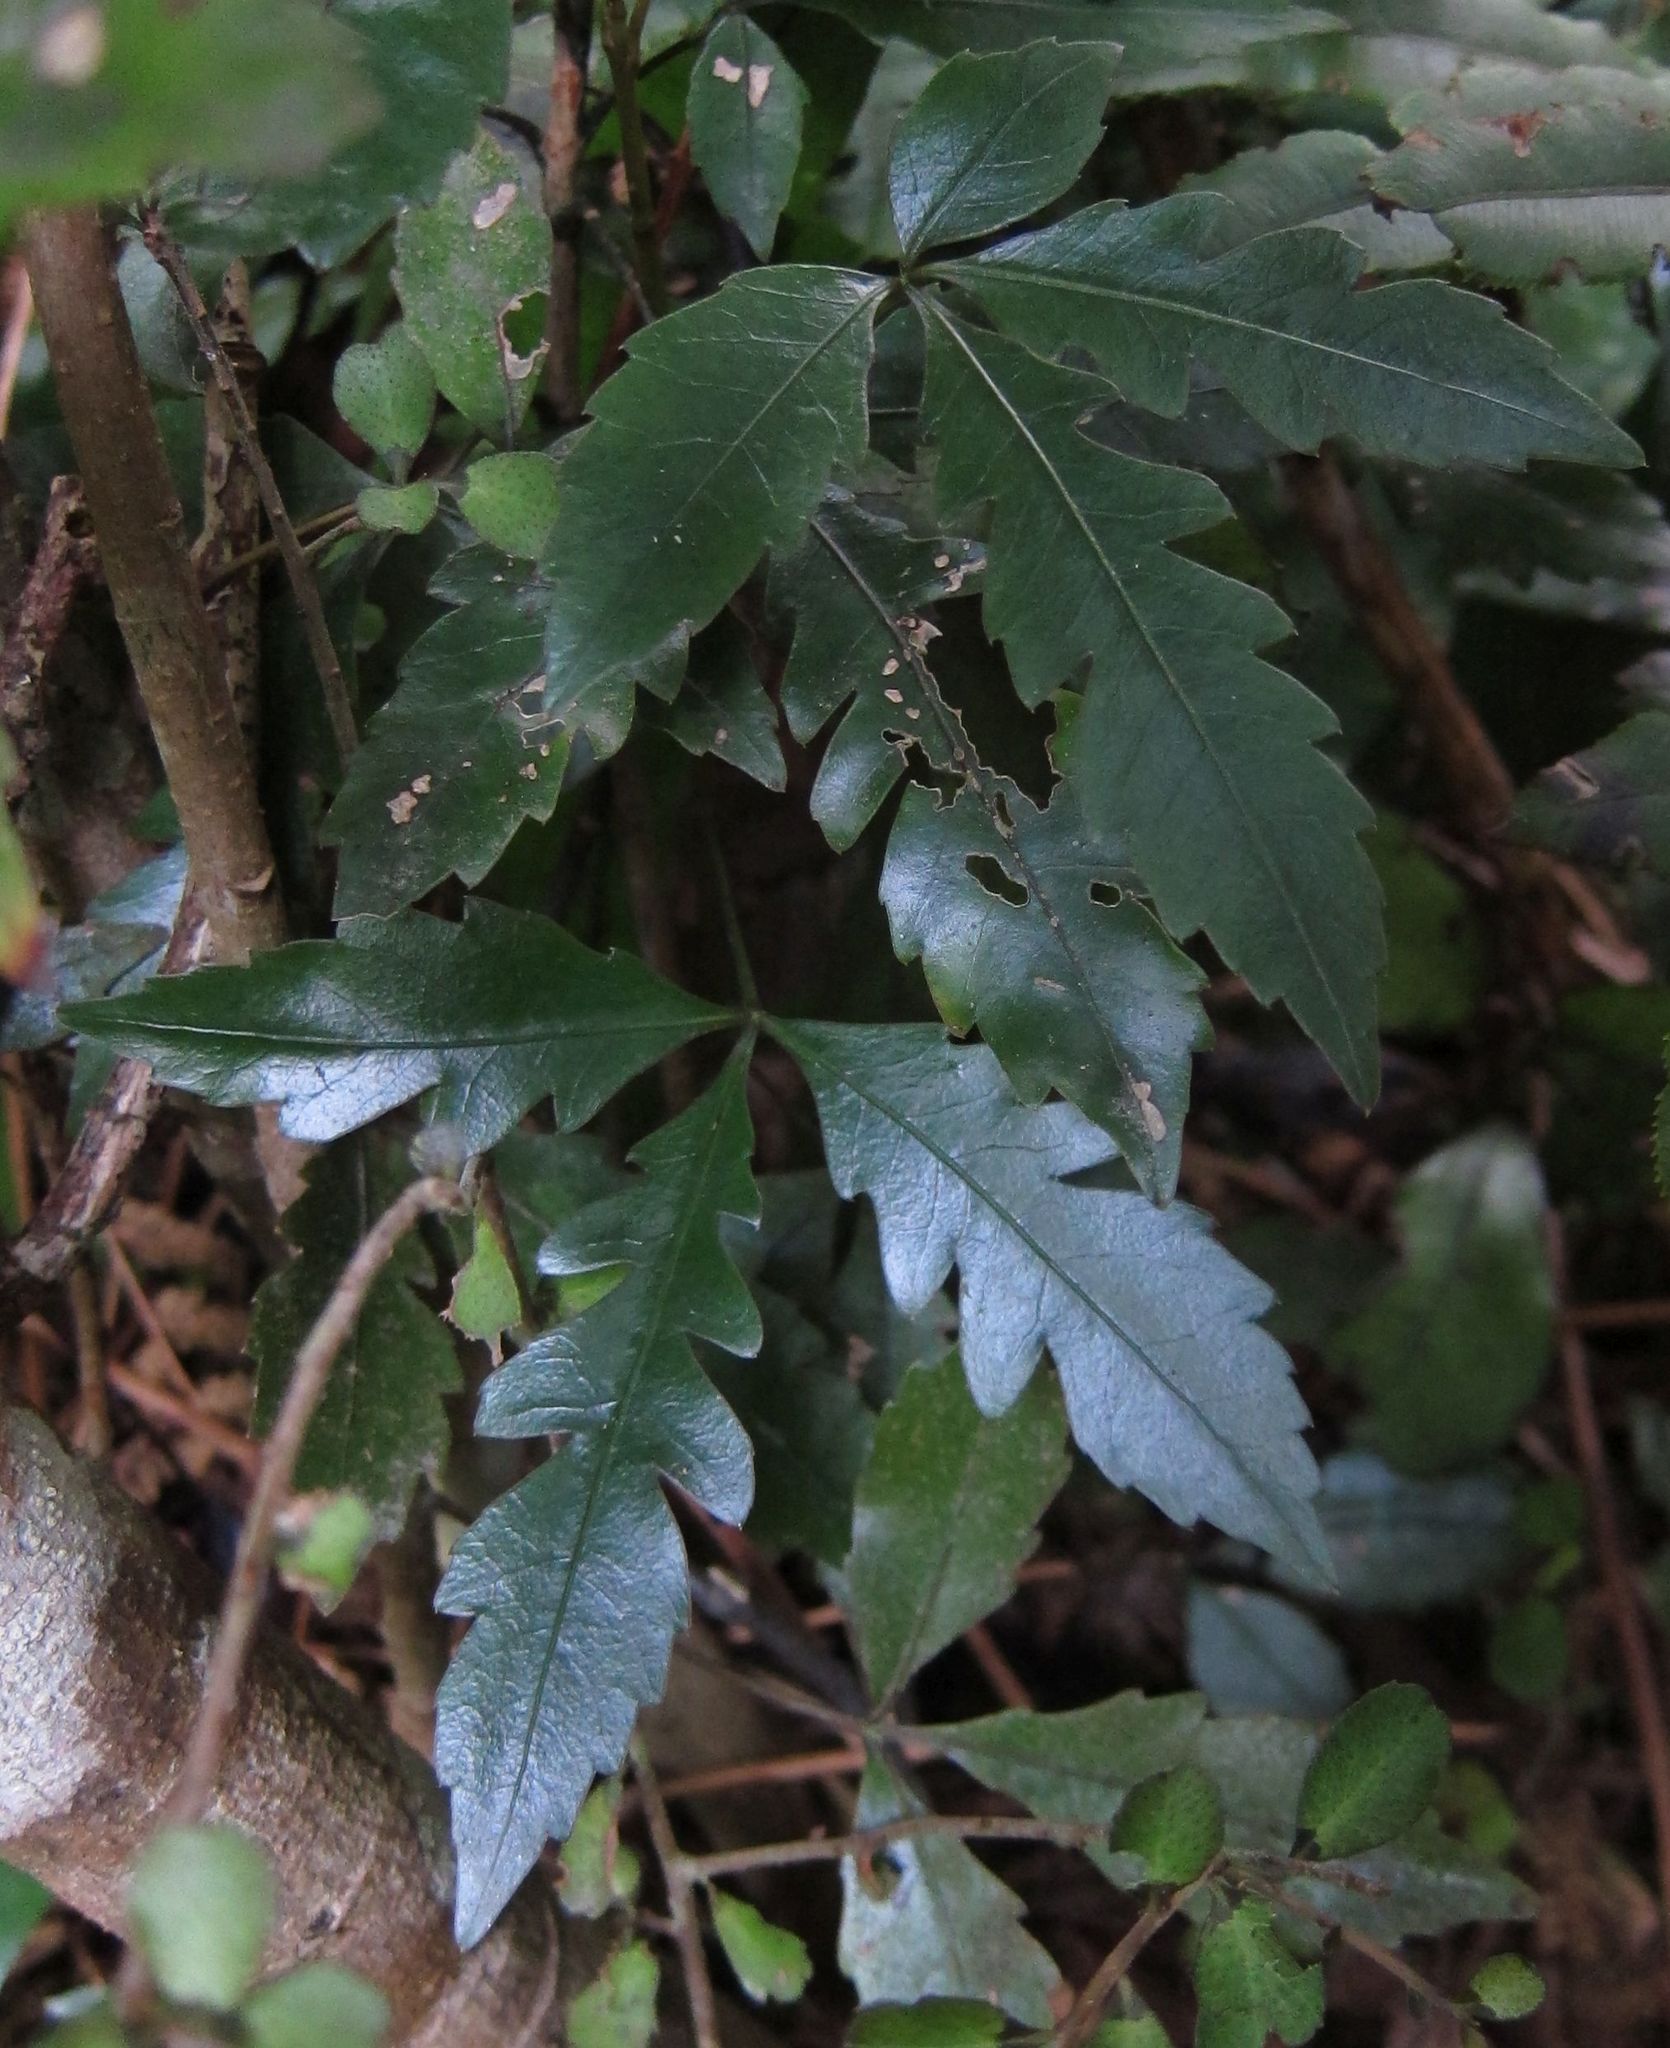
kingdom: Plantae
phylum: Tracheophyta
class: Magnoliopsida
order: Apiales
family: Araliaceae
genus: Raukaua
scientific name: Raukaua simplex
